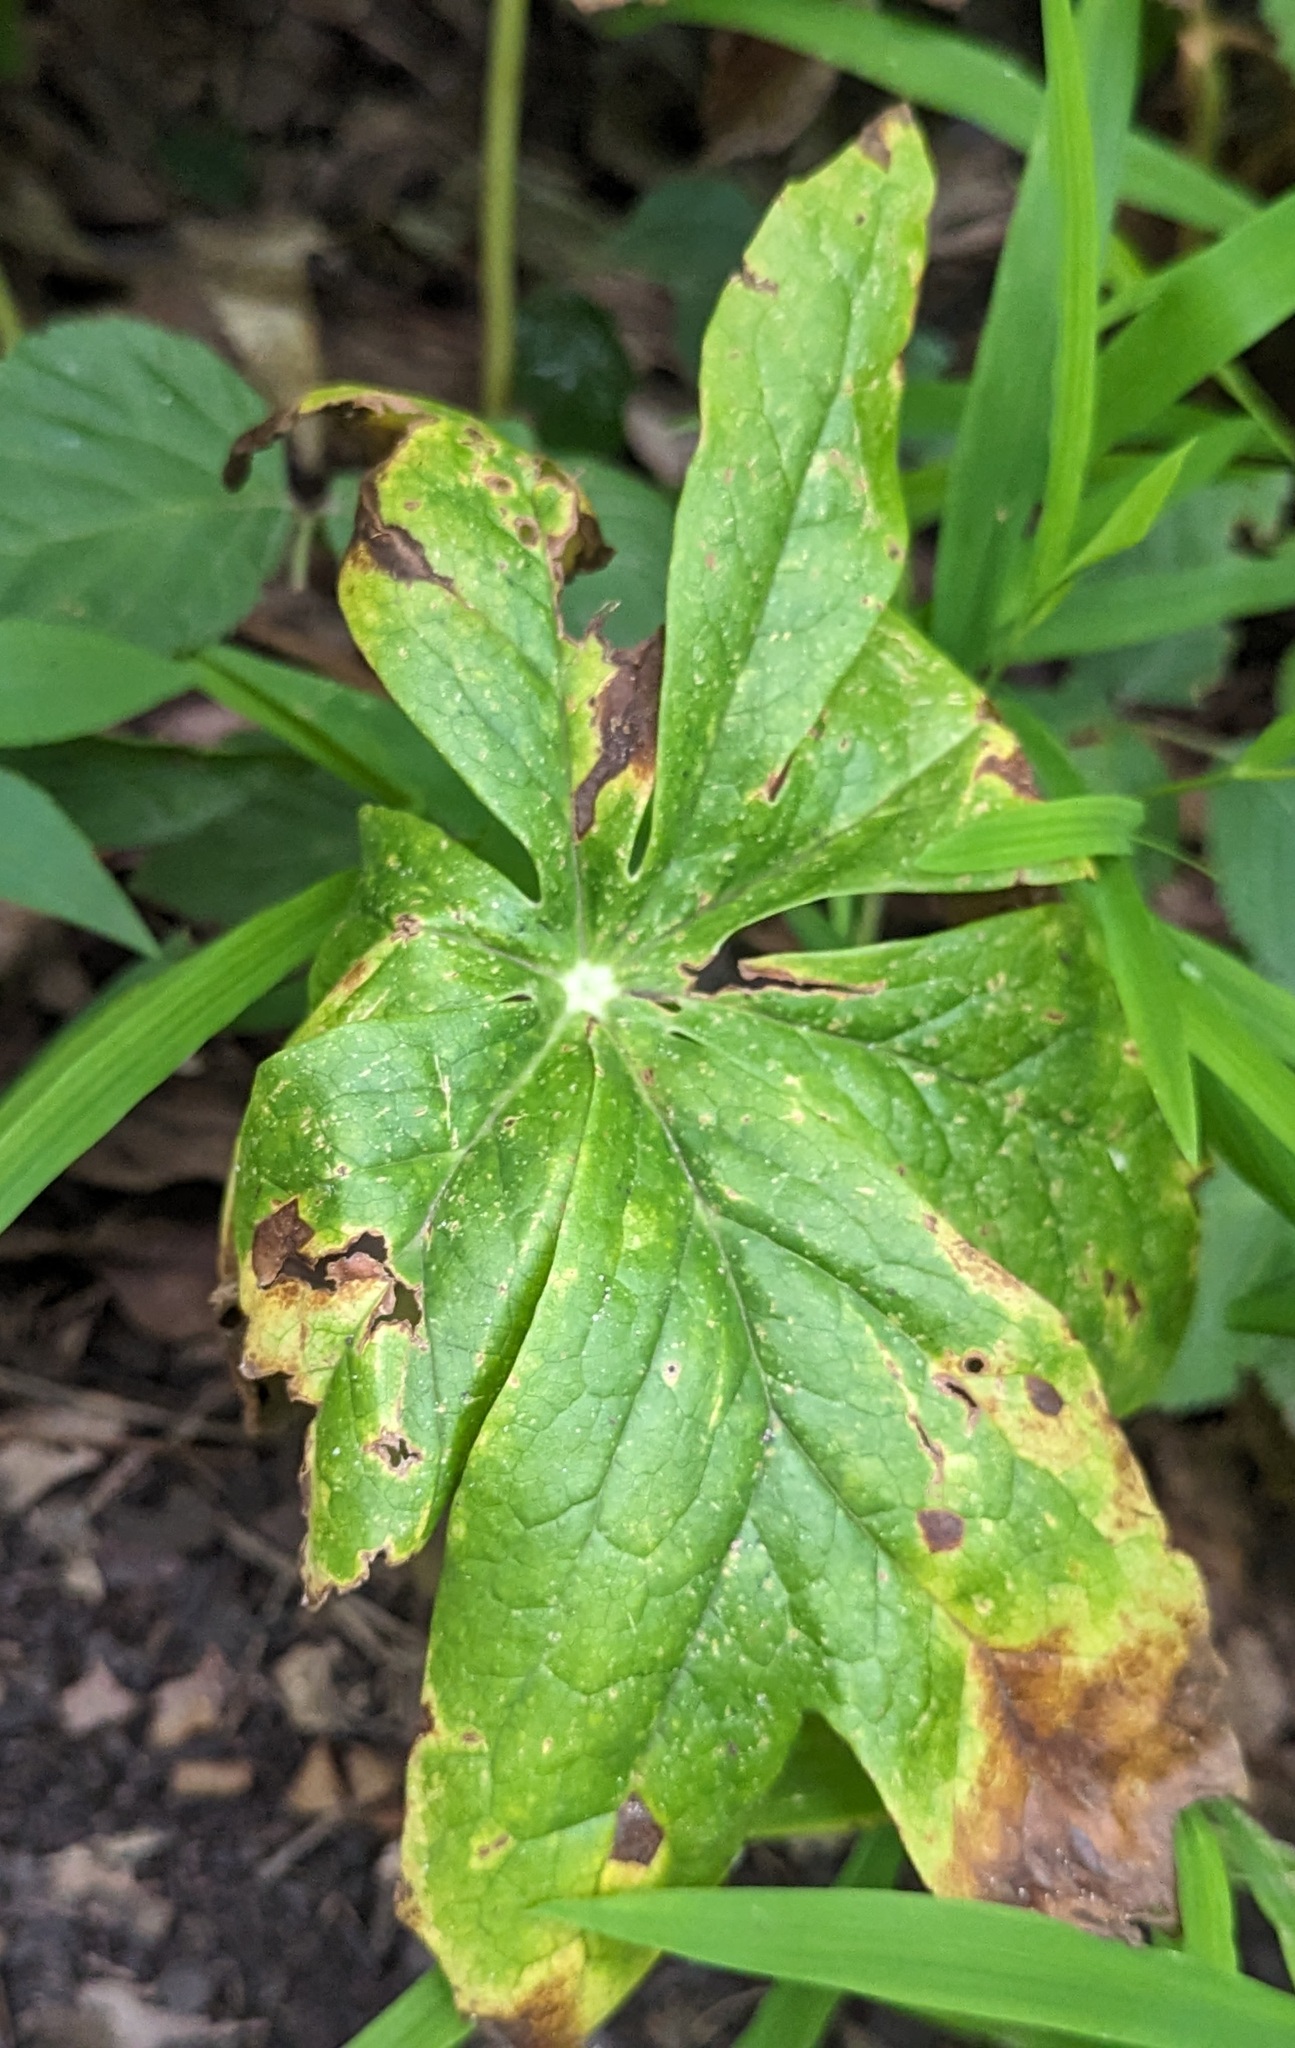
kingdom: Plantae
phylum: Tracheophyta
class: Magnoliopsida
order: Ranunculales
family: Berberidaceae
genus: Podophyllum
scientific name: Podophyllum peltatum
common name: Wild mandrake
